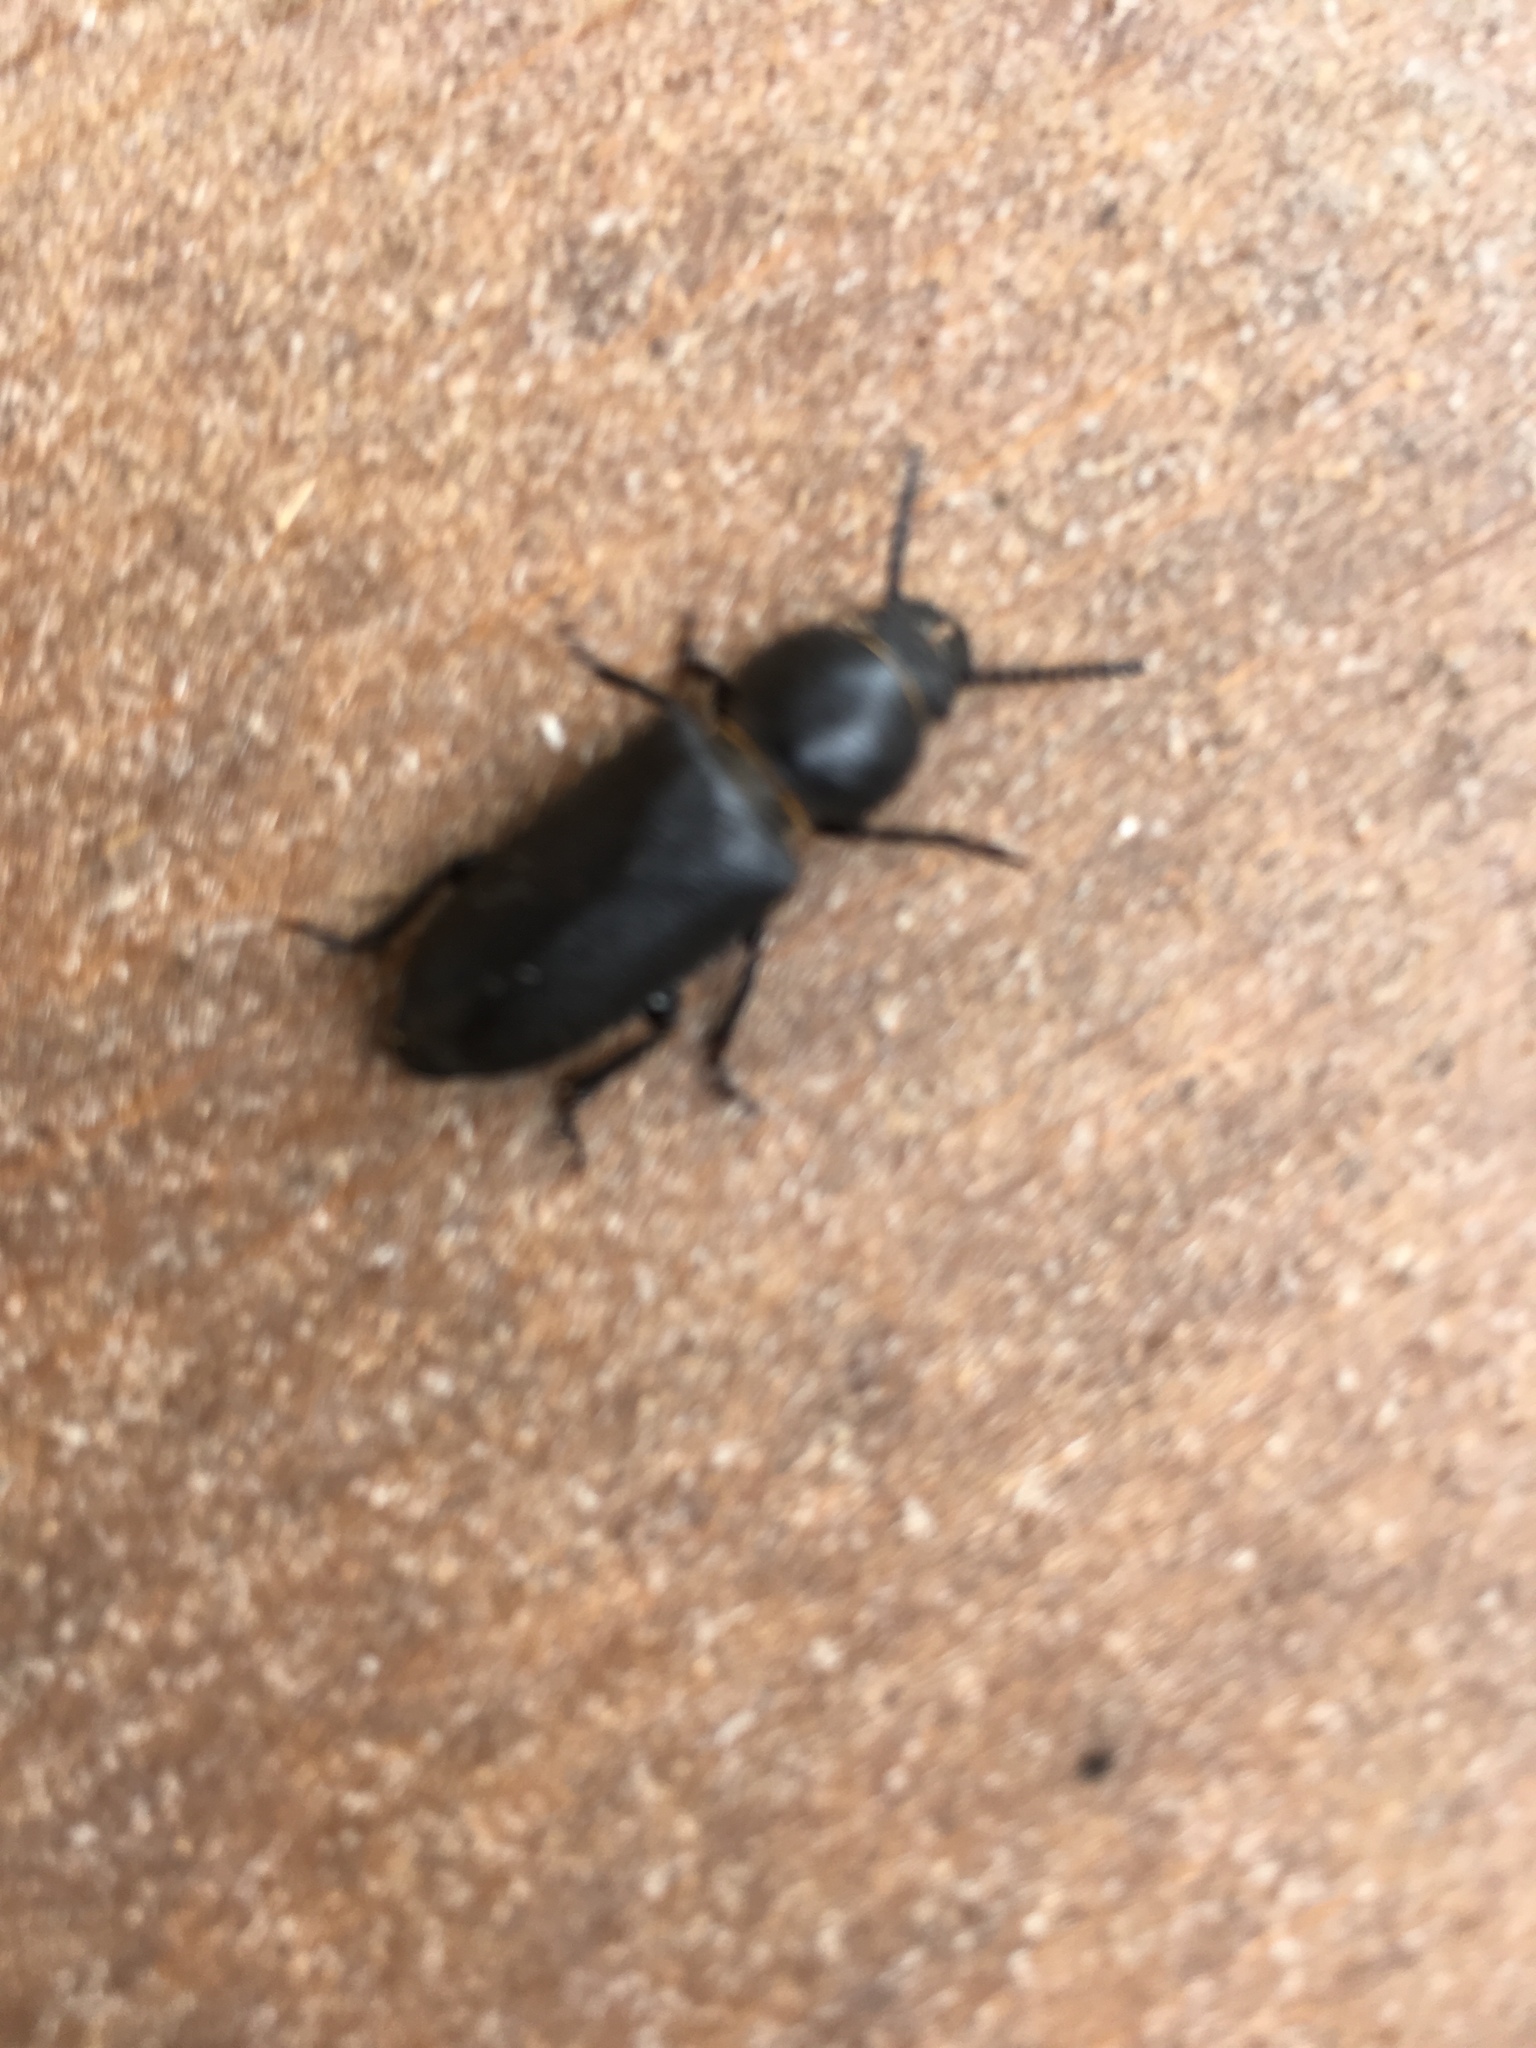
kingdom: Animalia
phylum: Arthropoda
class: Insecta
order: Coleoptera
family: Cerambycidae
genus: Spondylis
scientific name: Spondylis buprestoides
